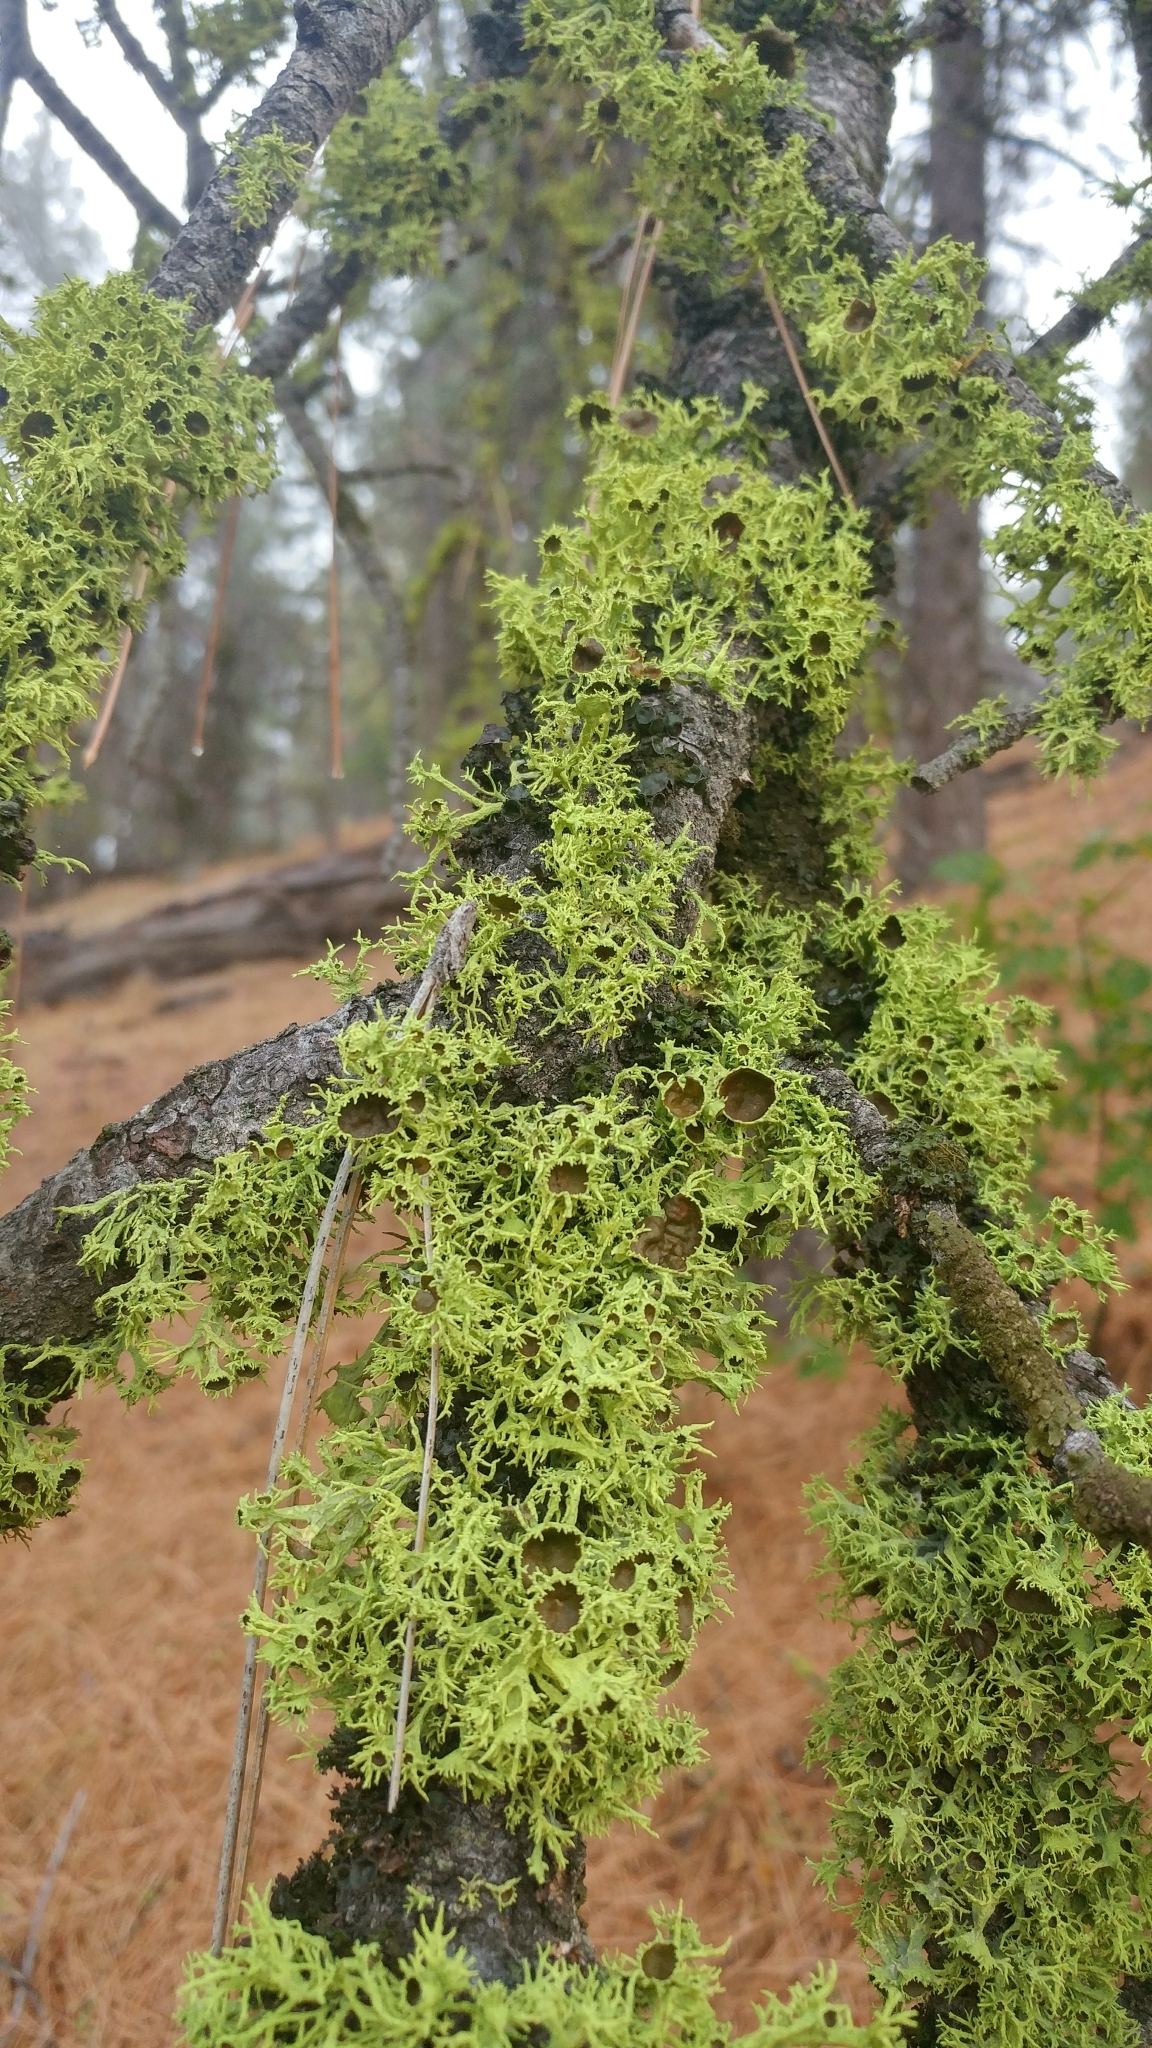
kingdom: Fungi
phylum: Ascomycota
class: Lecanoromycetes
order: Lecanorales
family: Parmeliaceae
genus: Letharia
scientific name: Letharia columbiana
